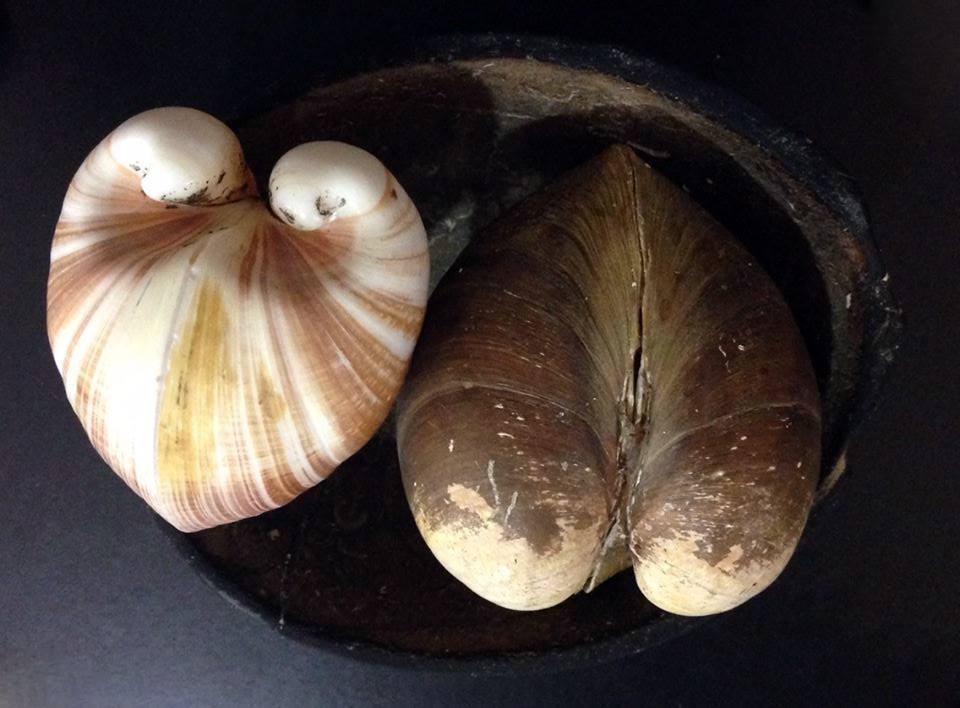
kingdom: Animalia
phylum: Mollusca
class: Bivalvia
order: Venerida
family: Glossidae
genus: Glossus
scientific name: Glossus humanus
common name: Heart cockle
